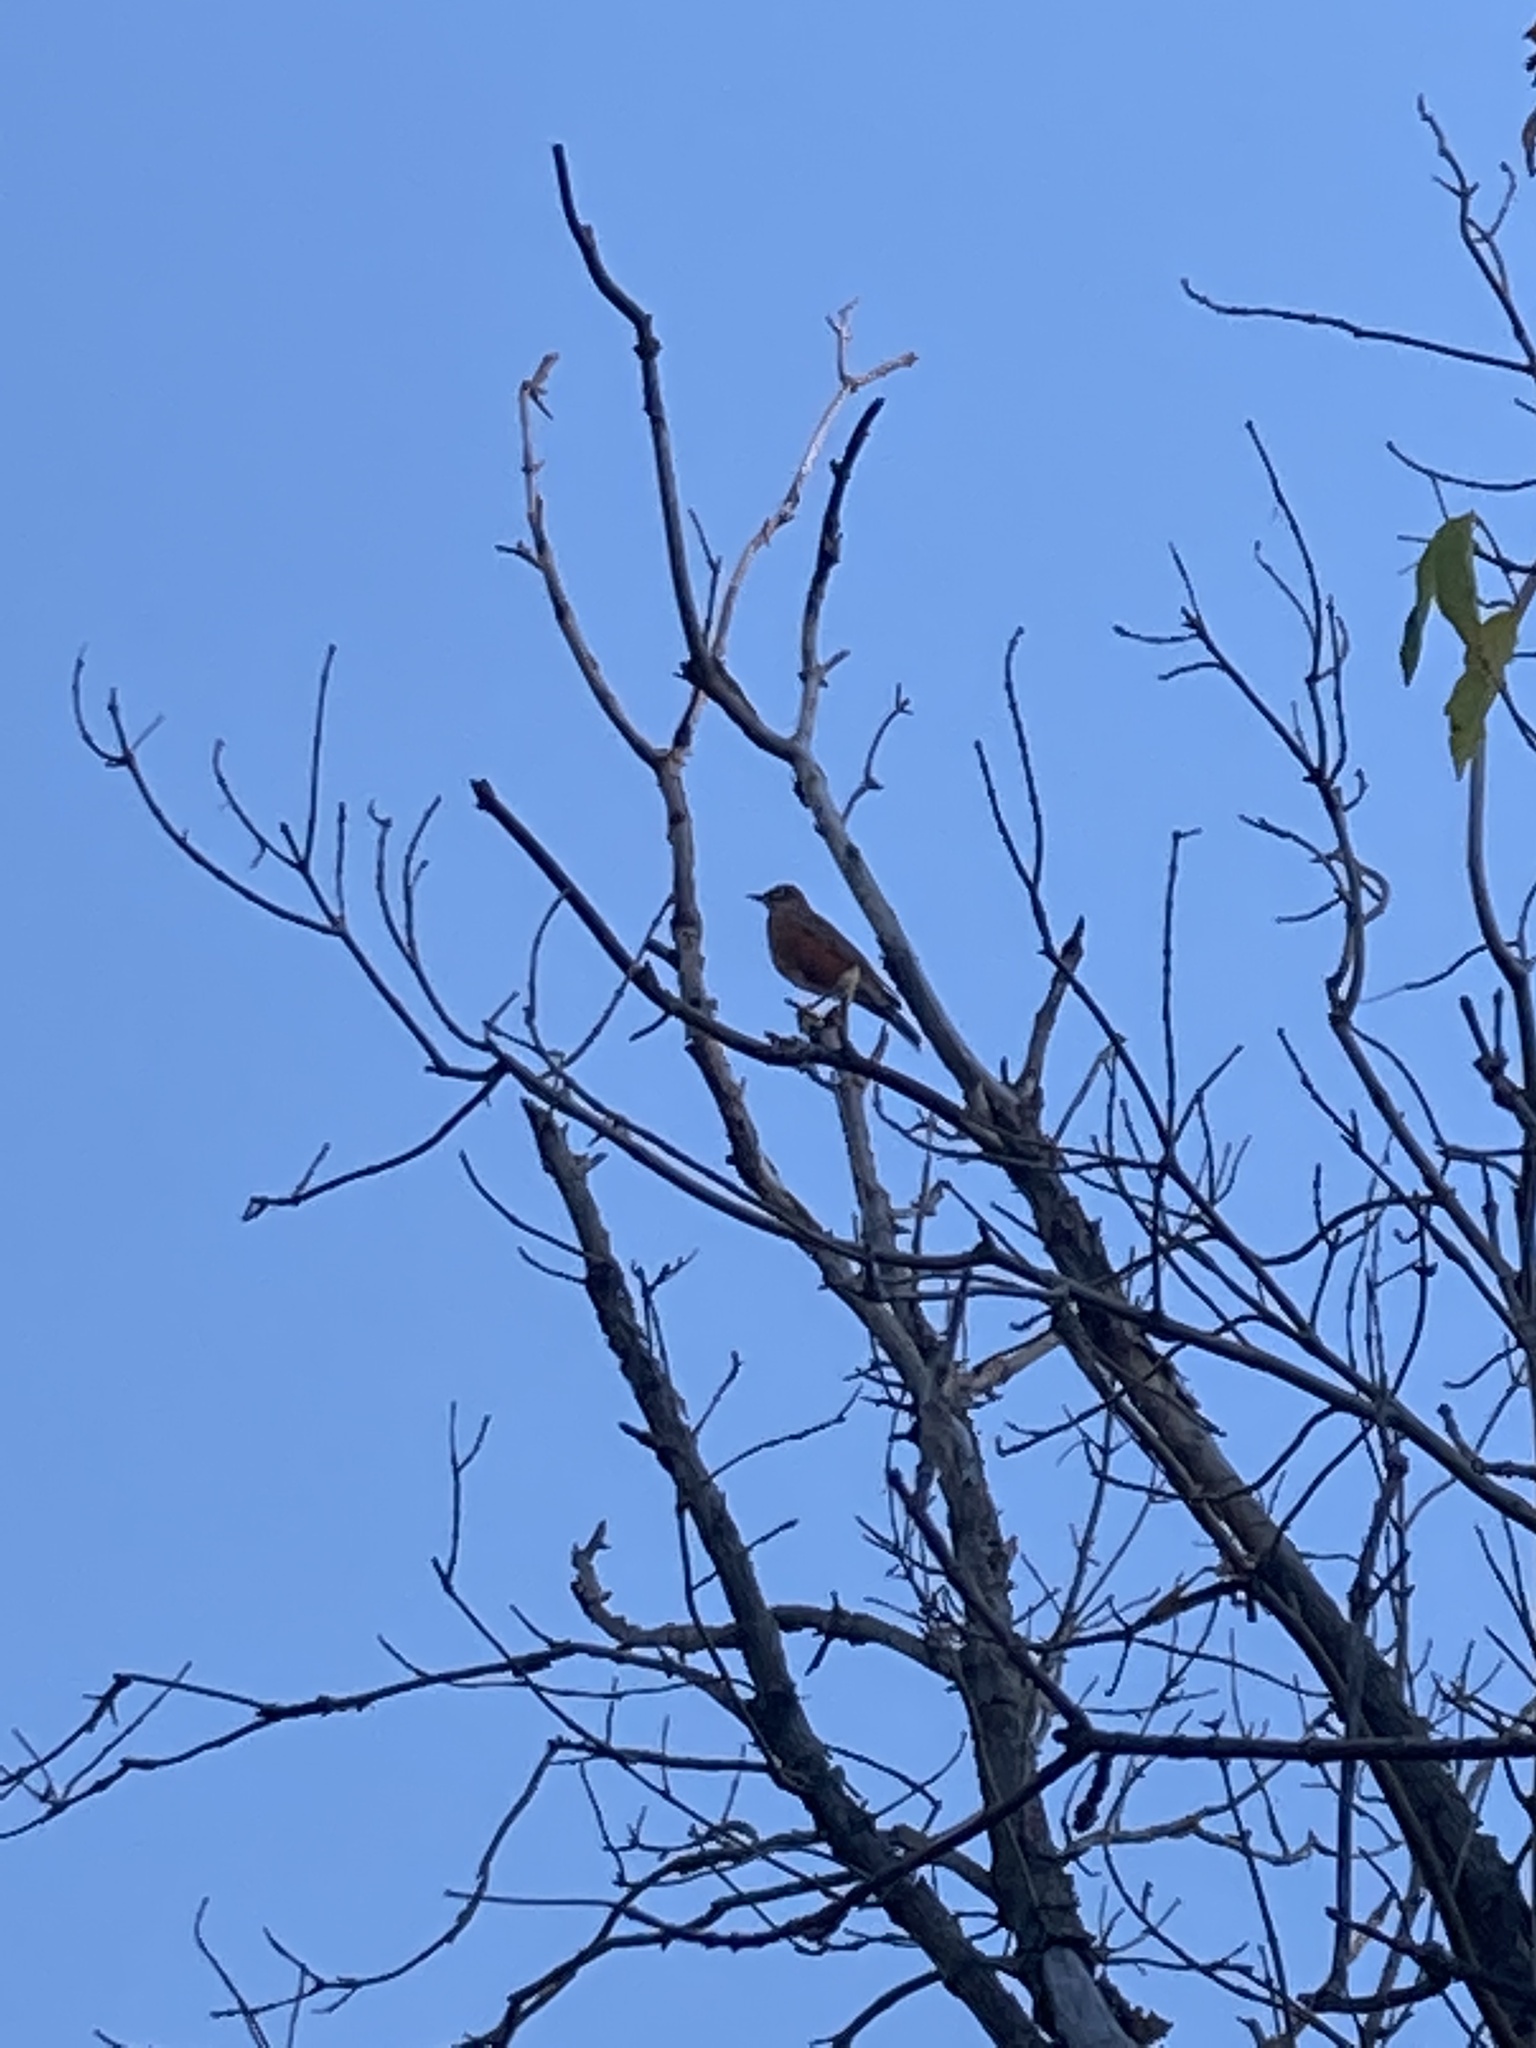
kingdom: Animalia
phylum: Chordata
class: Aves
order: Passeriformes
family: Turdidae
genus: Turdus
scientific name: Turdus migratorius
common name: American robin
